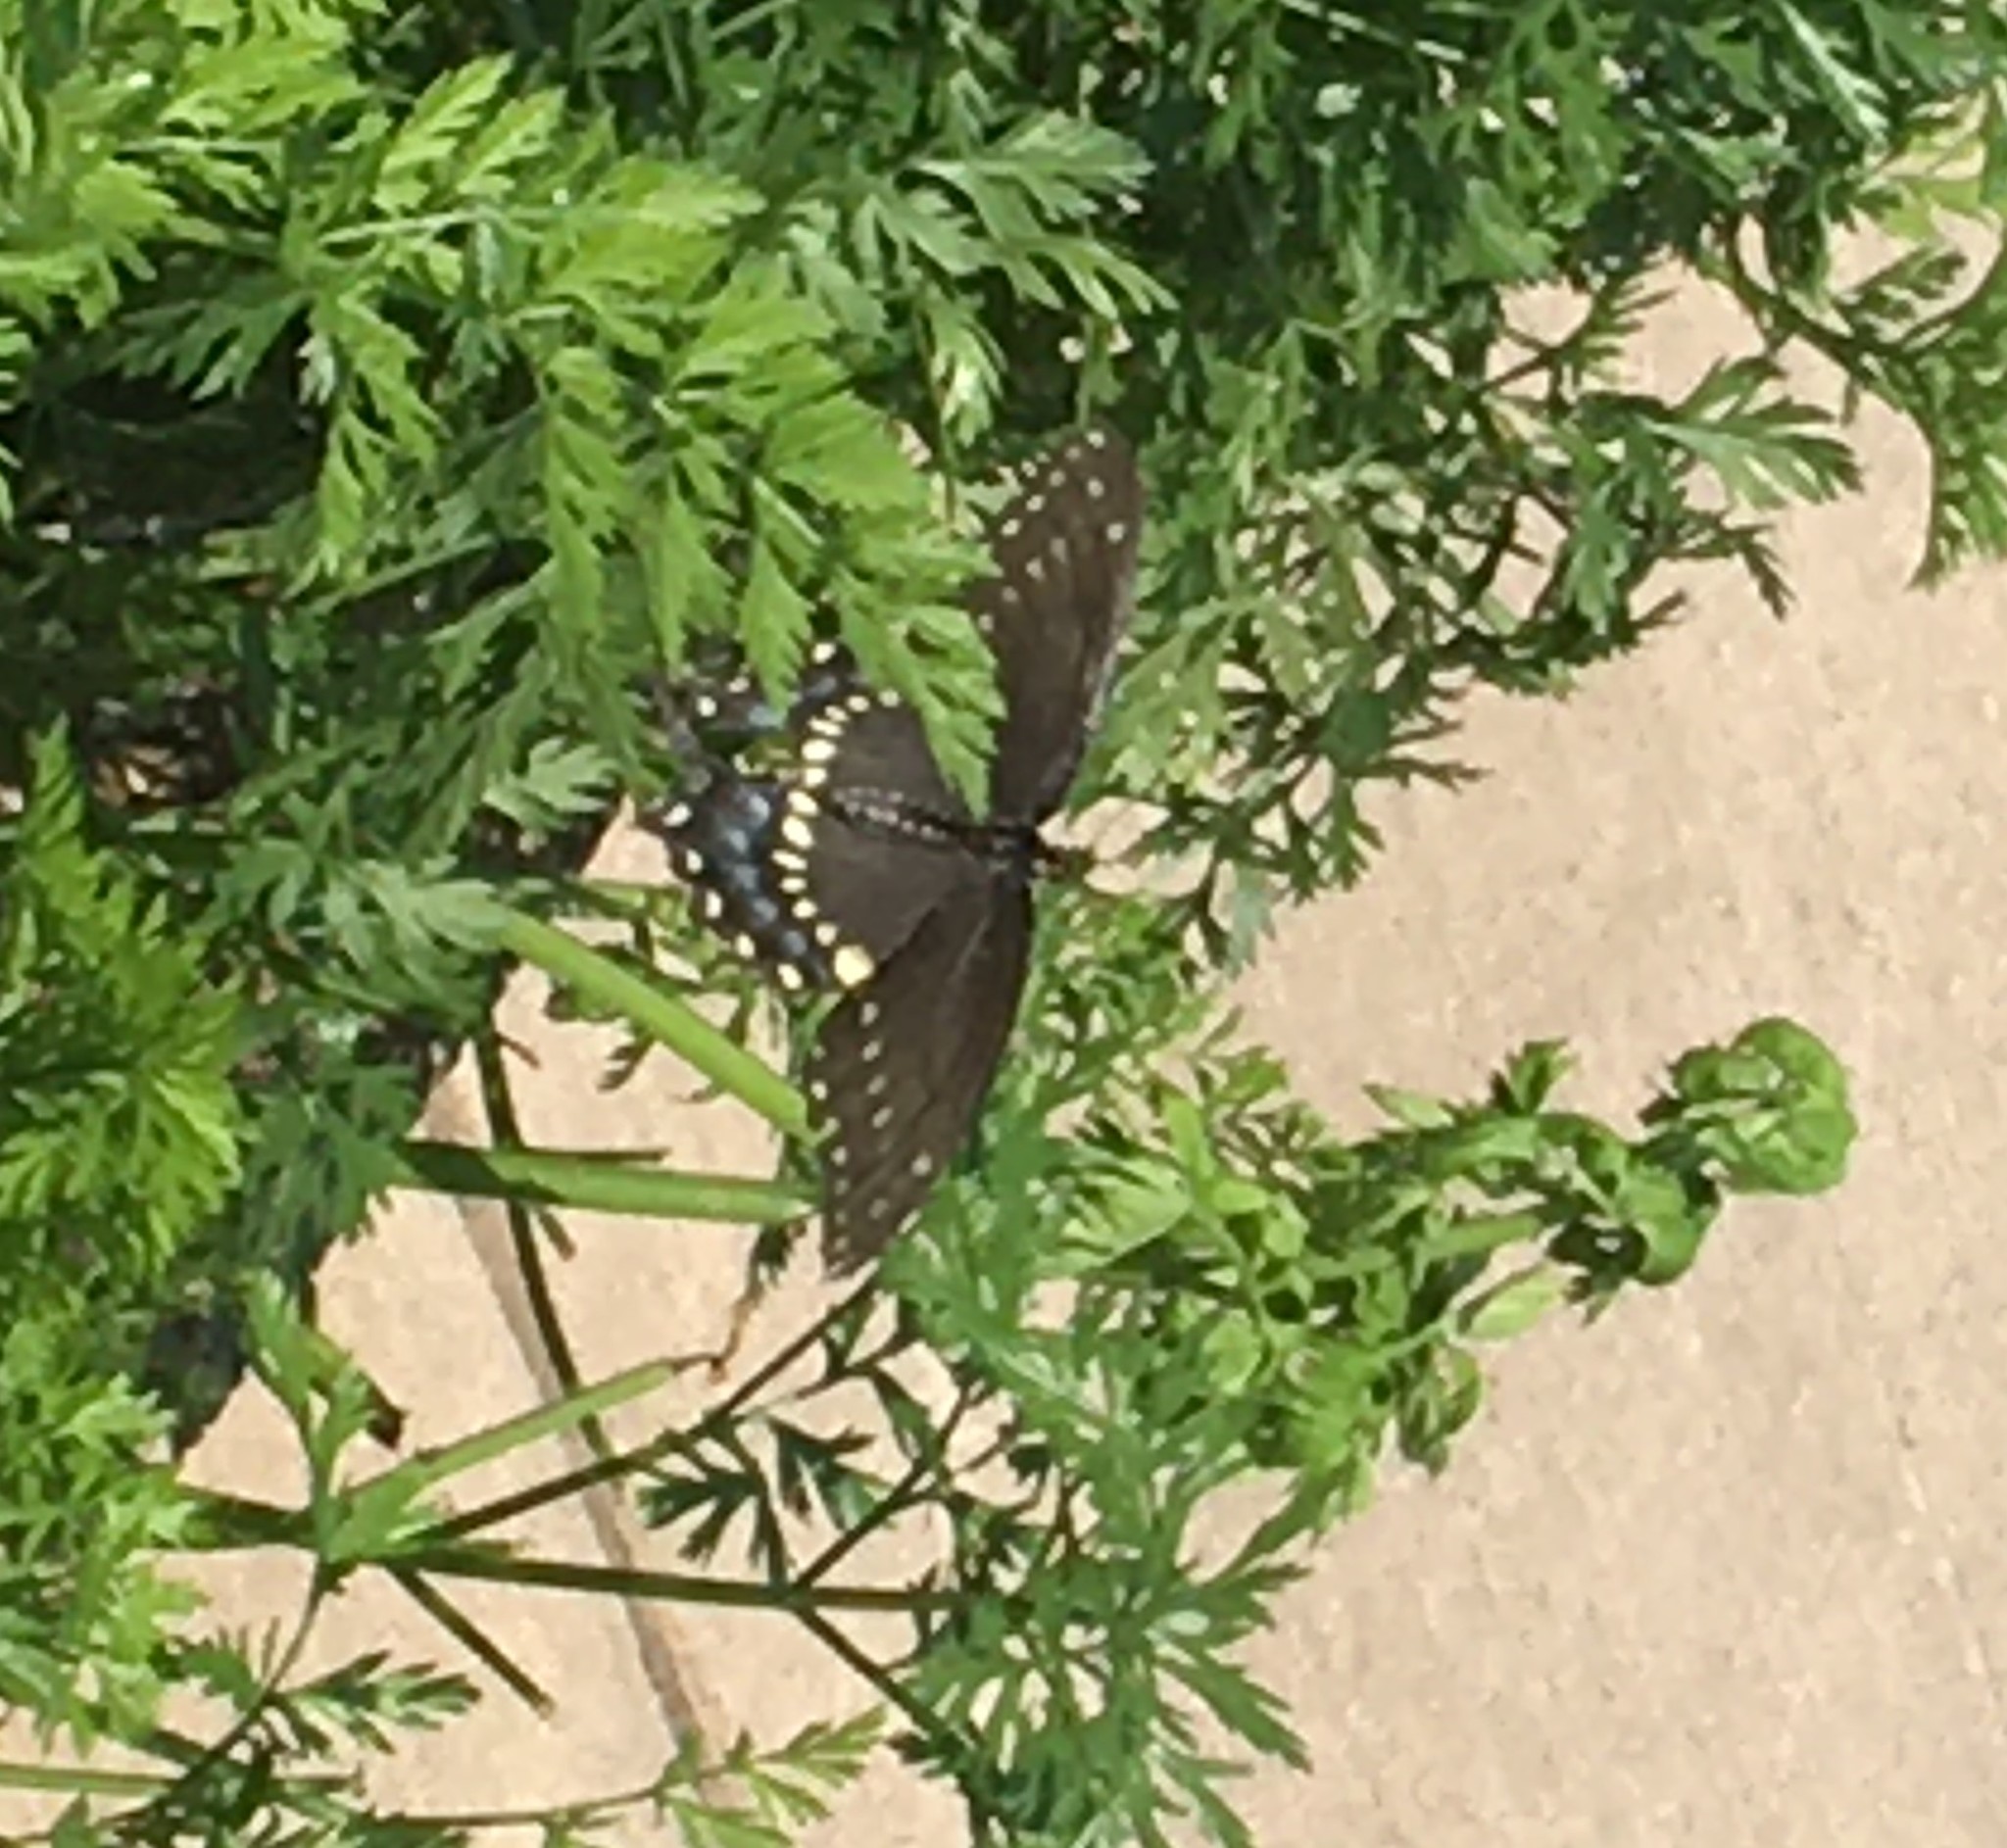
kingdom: Animalia
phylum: Arthropoda
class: Insecta
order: Lepidoptera
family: Papilionidae
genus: Papilio
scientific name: Papilio polyxenes
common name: Black swallowtail
